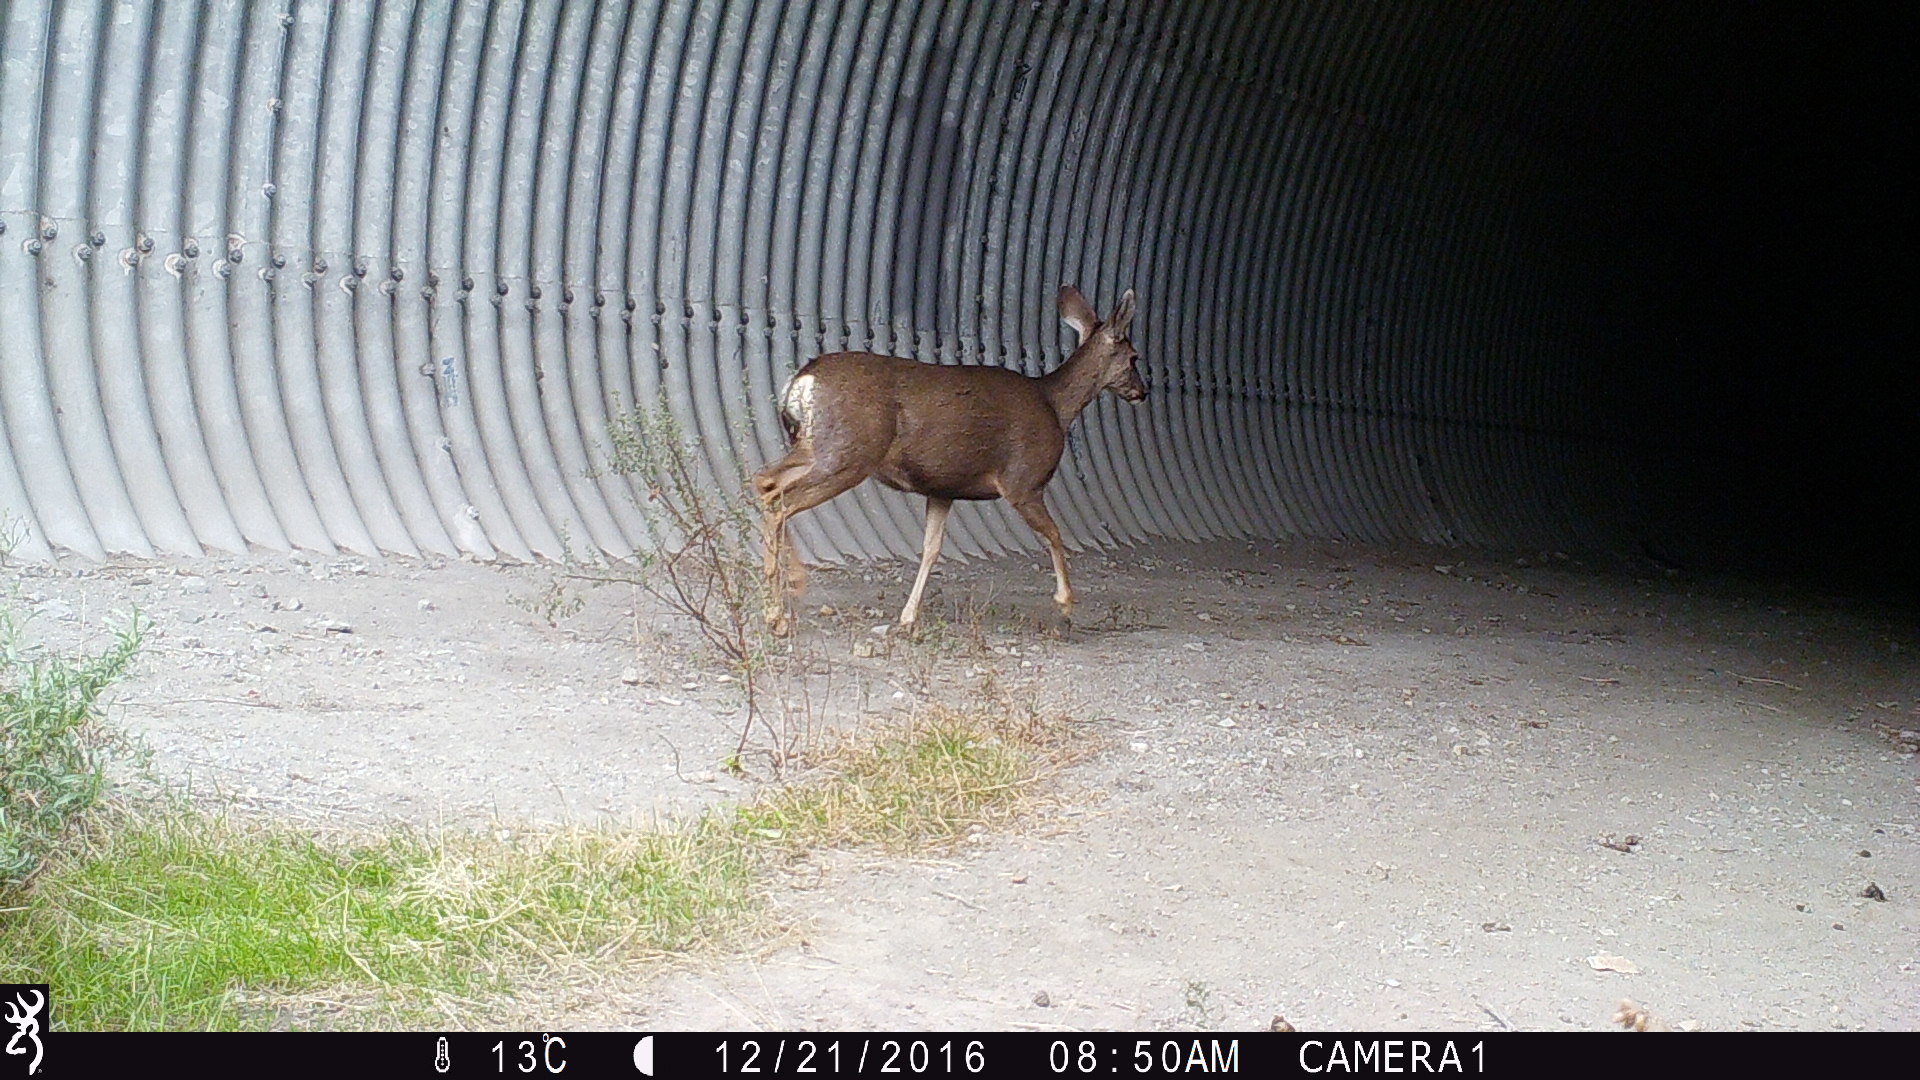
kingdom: Animalia
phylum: Chordata
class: Mammalia
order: Artiodactyla
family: Cervidae
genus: Odocoileus
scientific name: Odocoileus hemionus
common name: Mule deer
